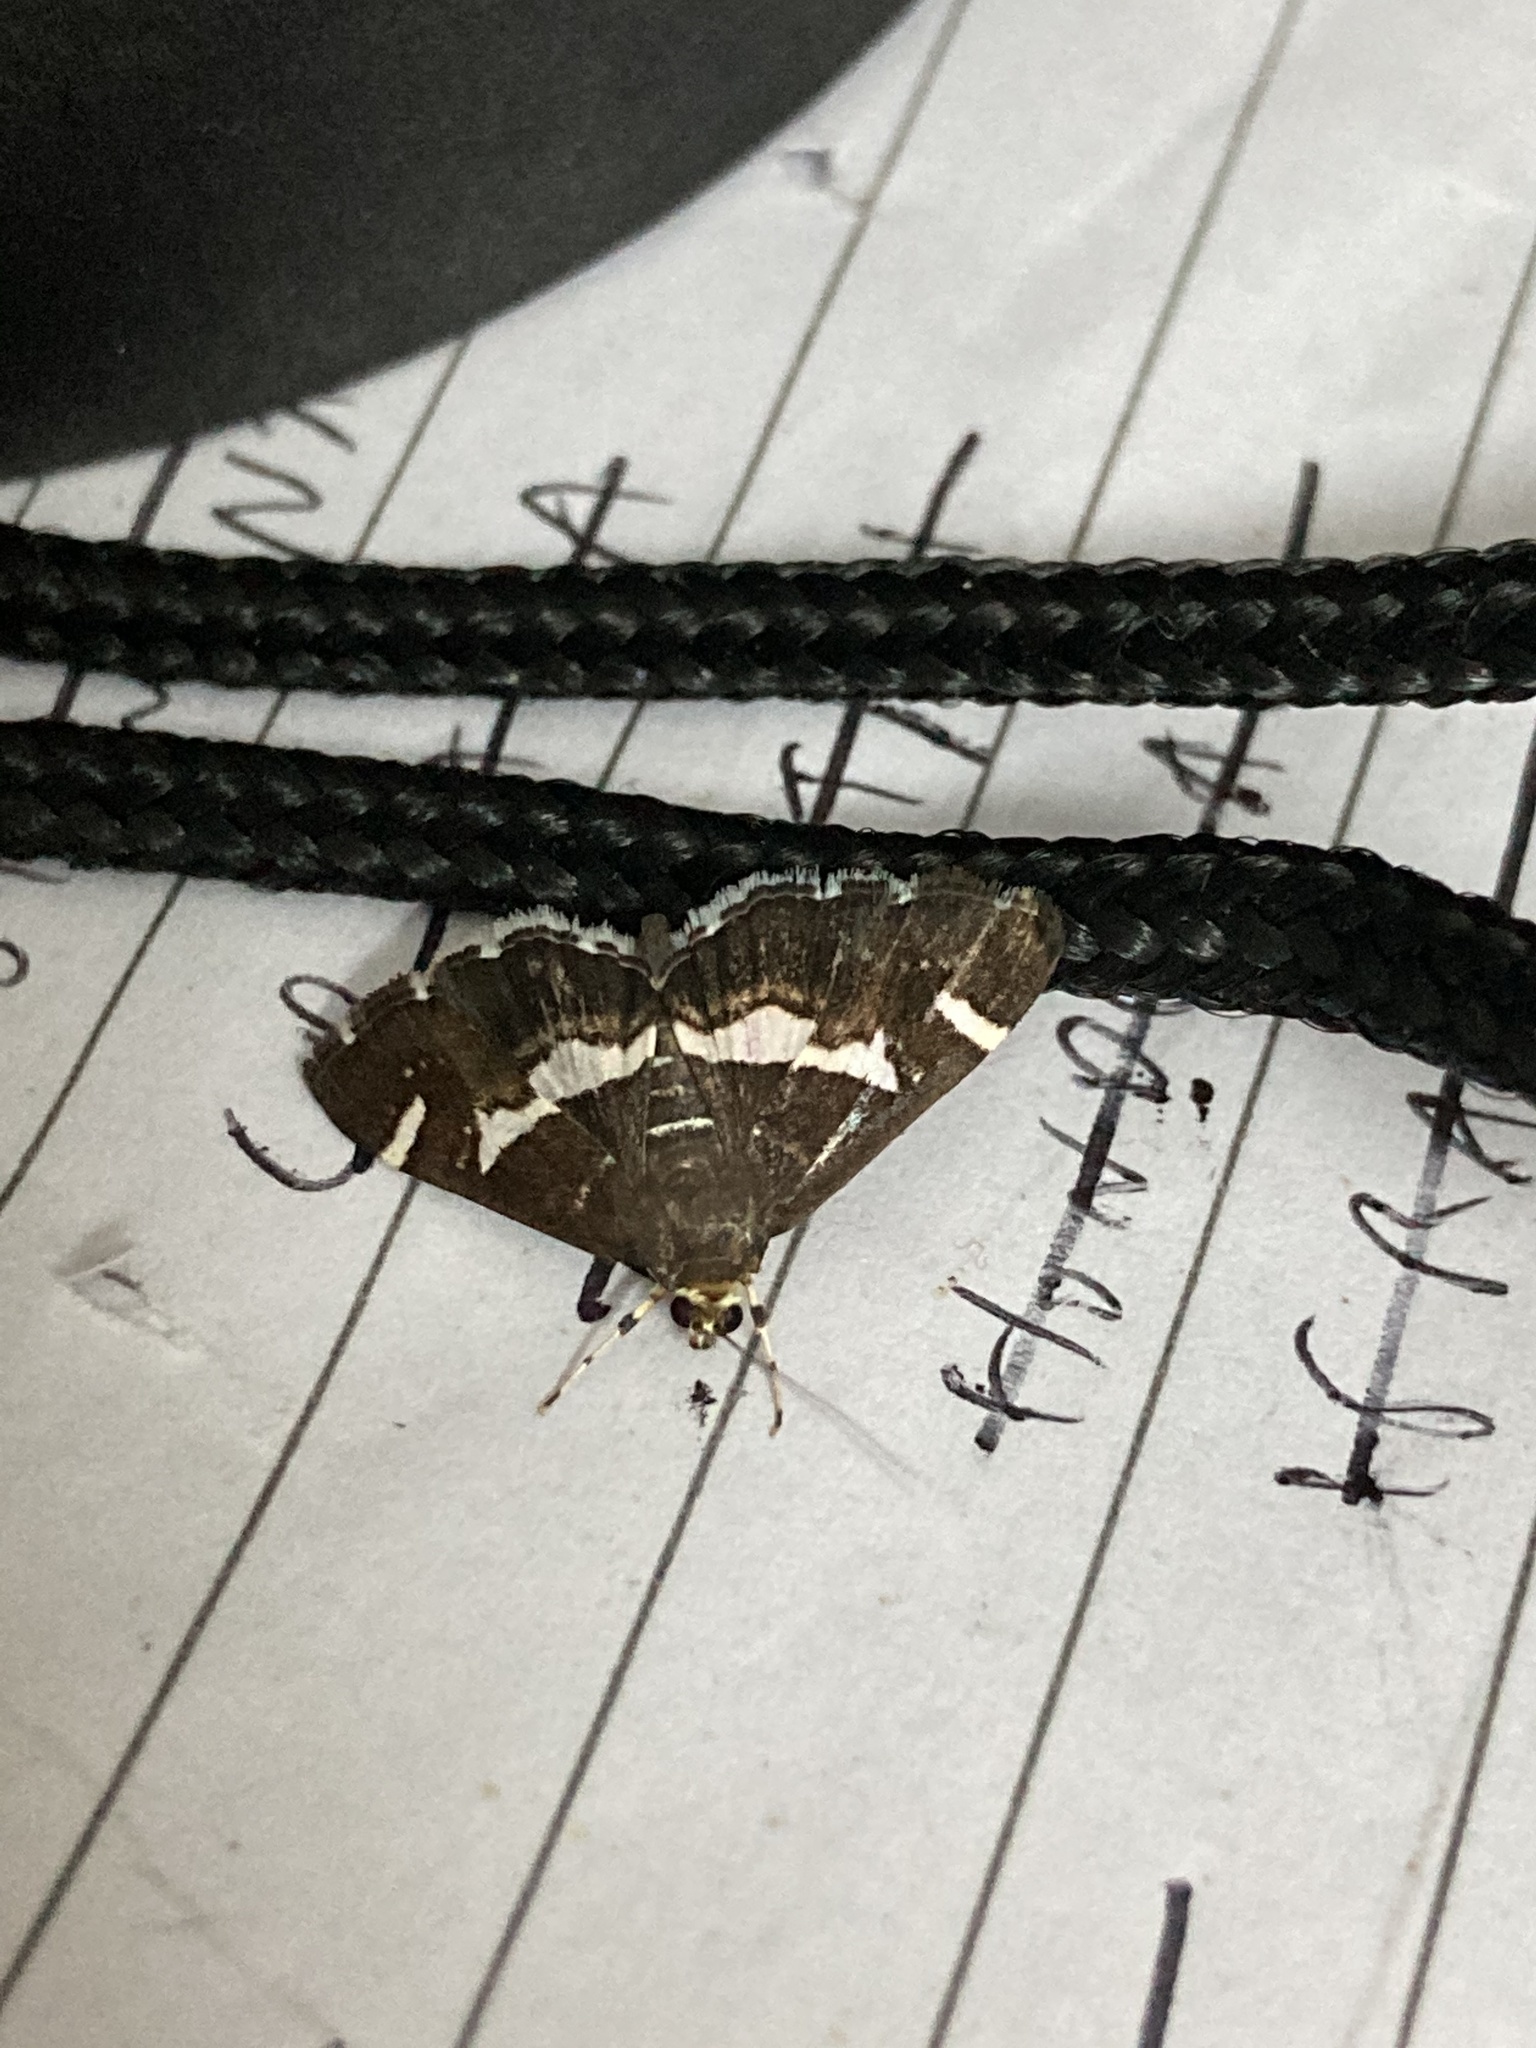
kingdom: Animalia
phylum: Arthropoda
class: Insecta
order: Lepidoptera
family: Crambidae
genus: Spoladea
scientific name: Spoladea recurvalis
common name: Beet webworm moth
